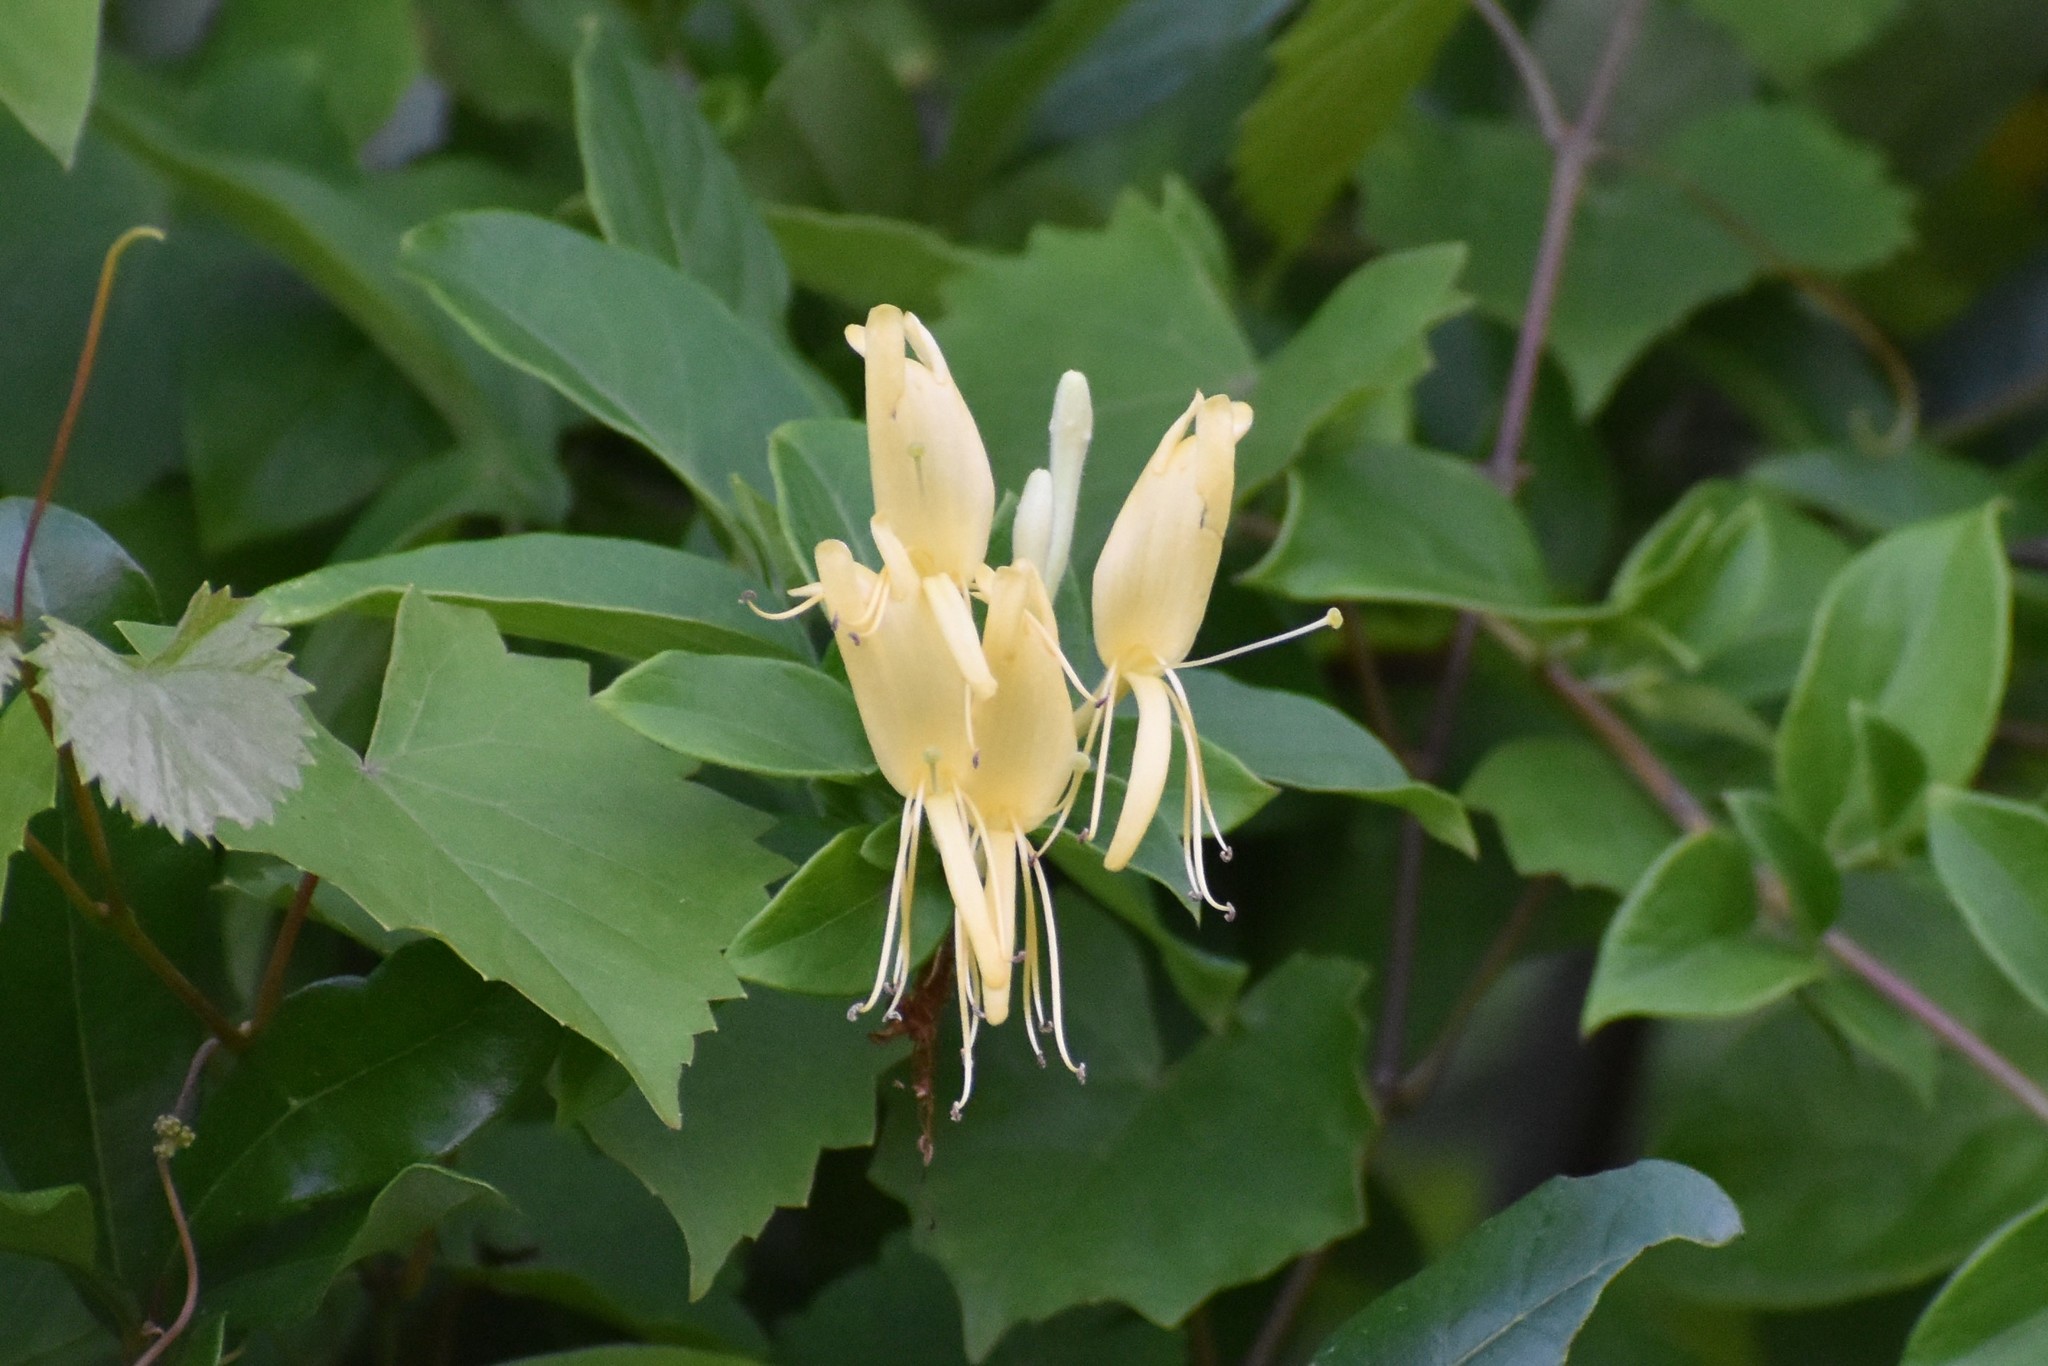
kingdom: Plantae
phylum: Tracheophyta
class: Magnoliopsida
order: Dipsacales
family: Caprifoliaceae
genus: Lonicera
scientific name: Lonicera japonica
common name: Japanese honeysuckle
